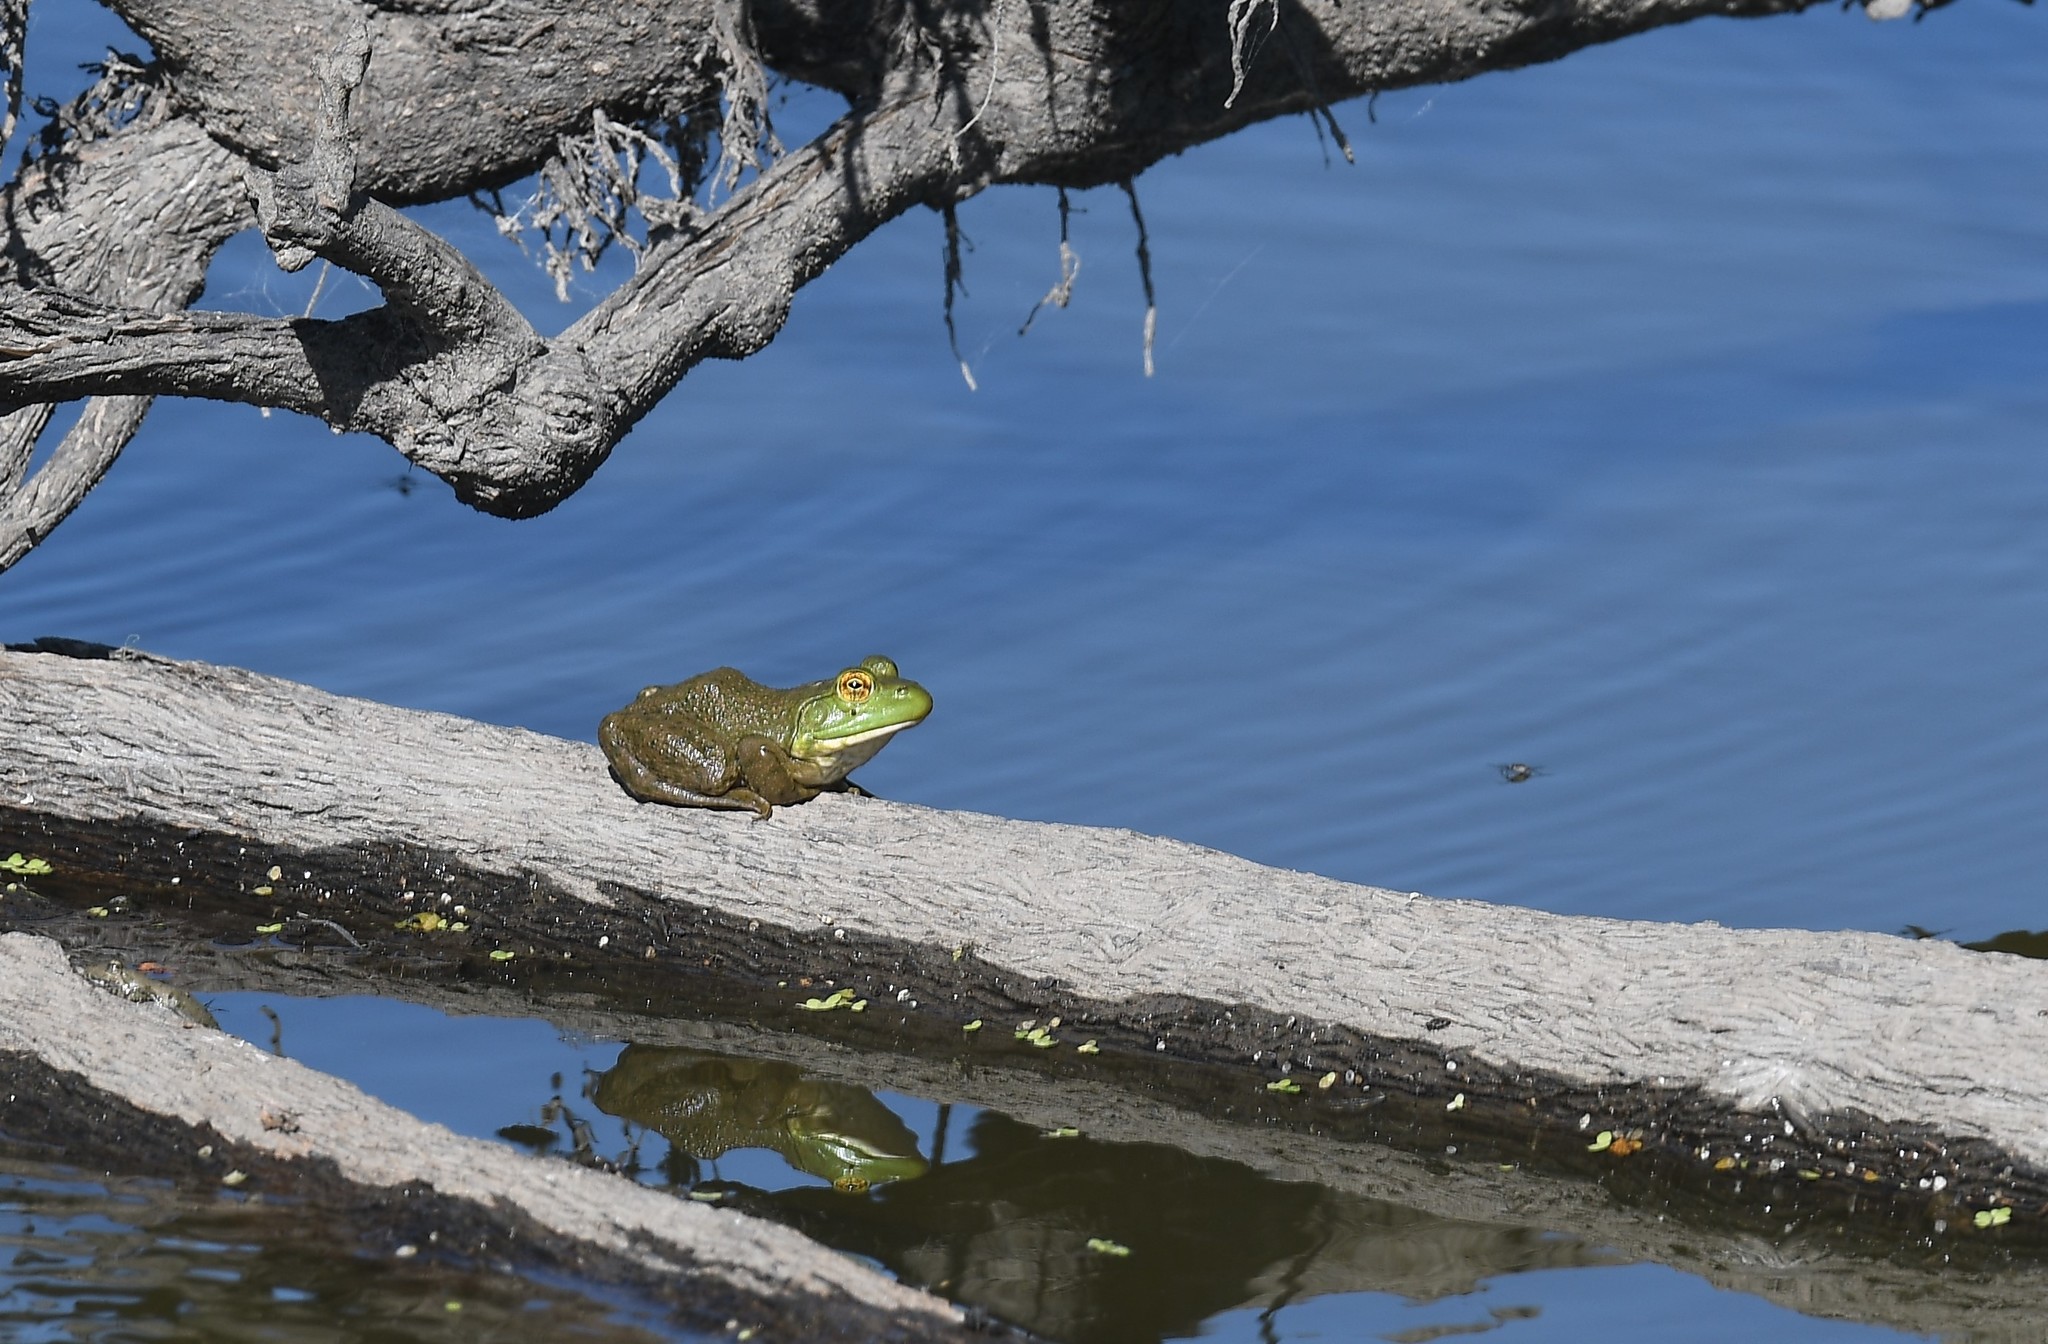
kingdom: Animalia
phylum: Chordata
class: Amphibia
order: Anura
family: Ranidae
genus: Lithobates
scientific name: Lithobates catesbeianus
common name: American bullfrog
